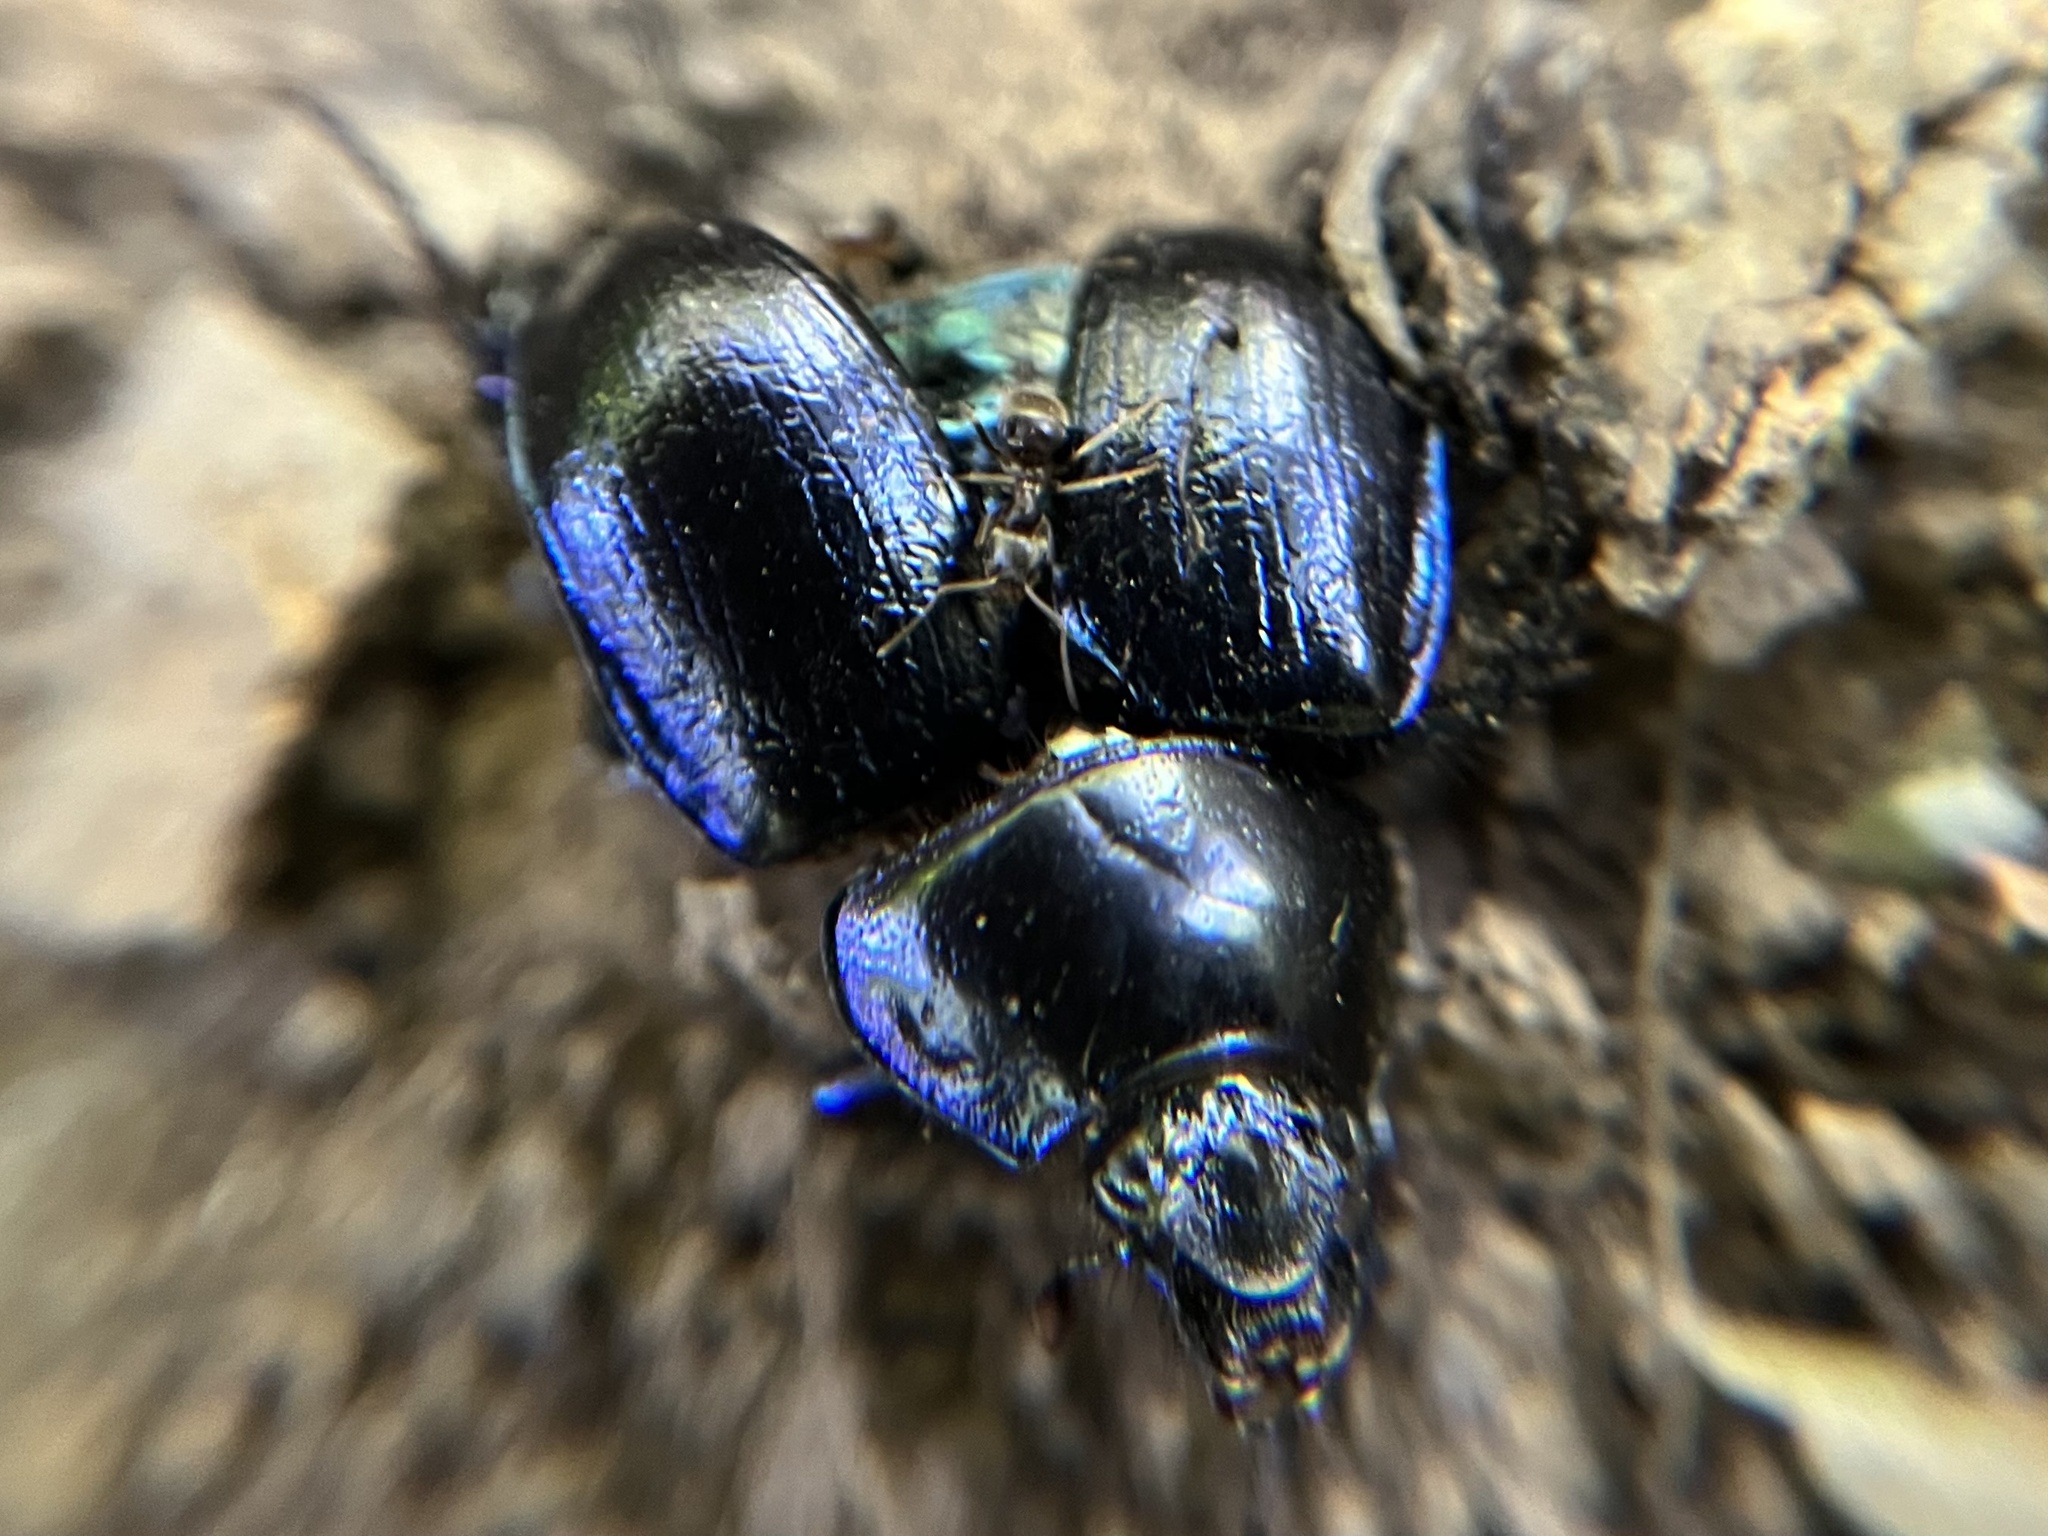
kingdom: Animalia
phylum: Arthropoda
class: Insecta
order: Coleoptera
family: Geotrupidae
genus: Anoplotrupes
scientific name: Anoplotrupes stercorosus
